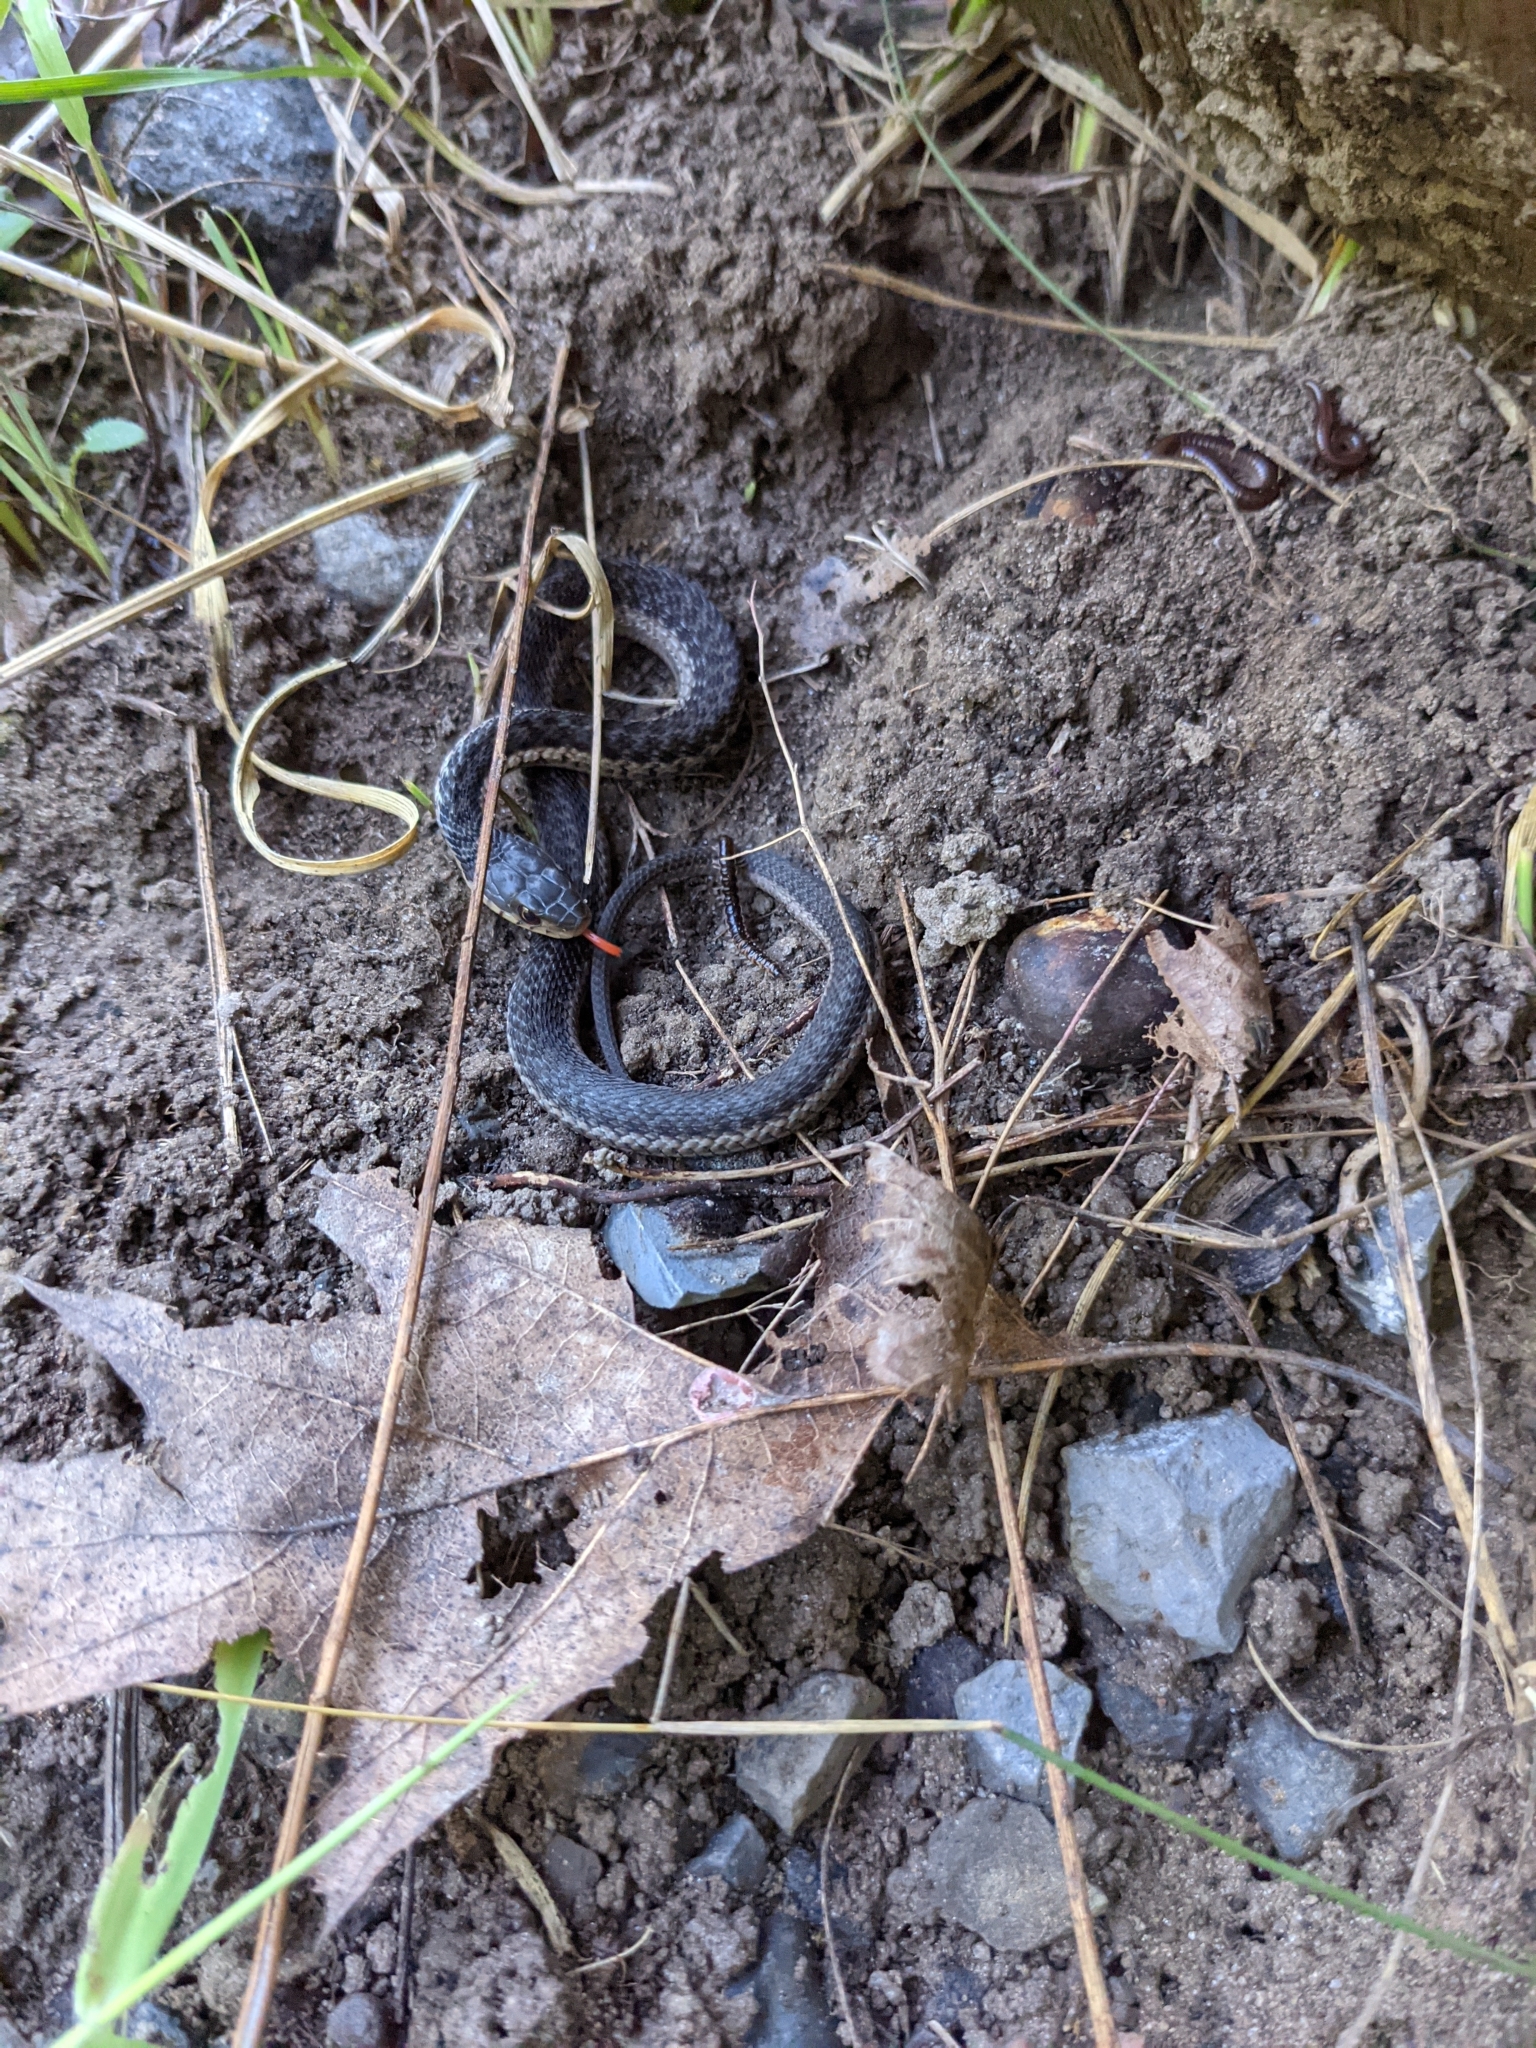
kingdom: Animalia
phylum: Chordata
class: Squamata
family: Colubridae
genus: Thamnophis
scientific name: Thamnophis sirtalis
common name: Common garter snake
